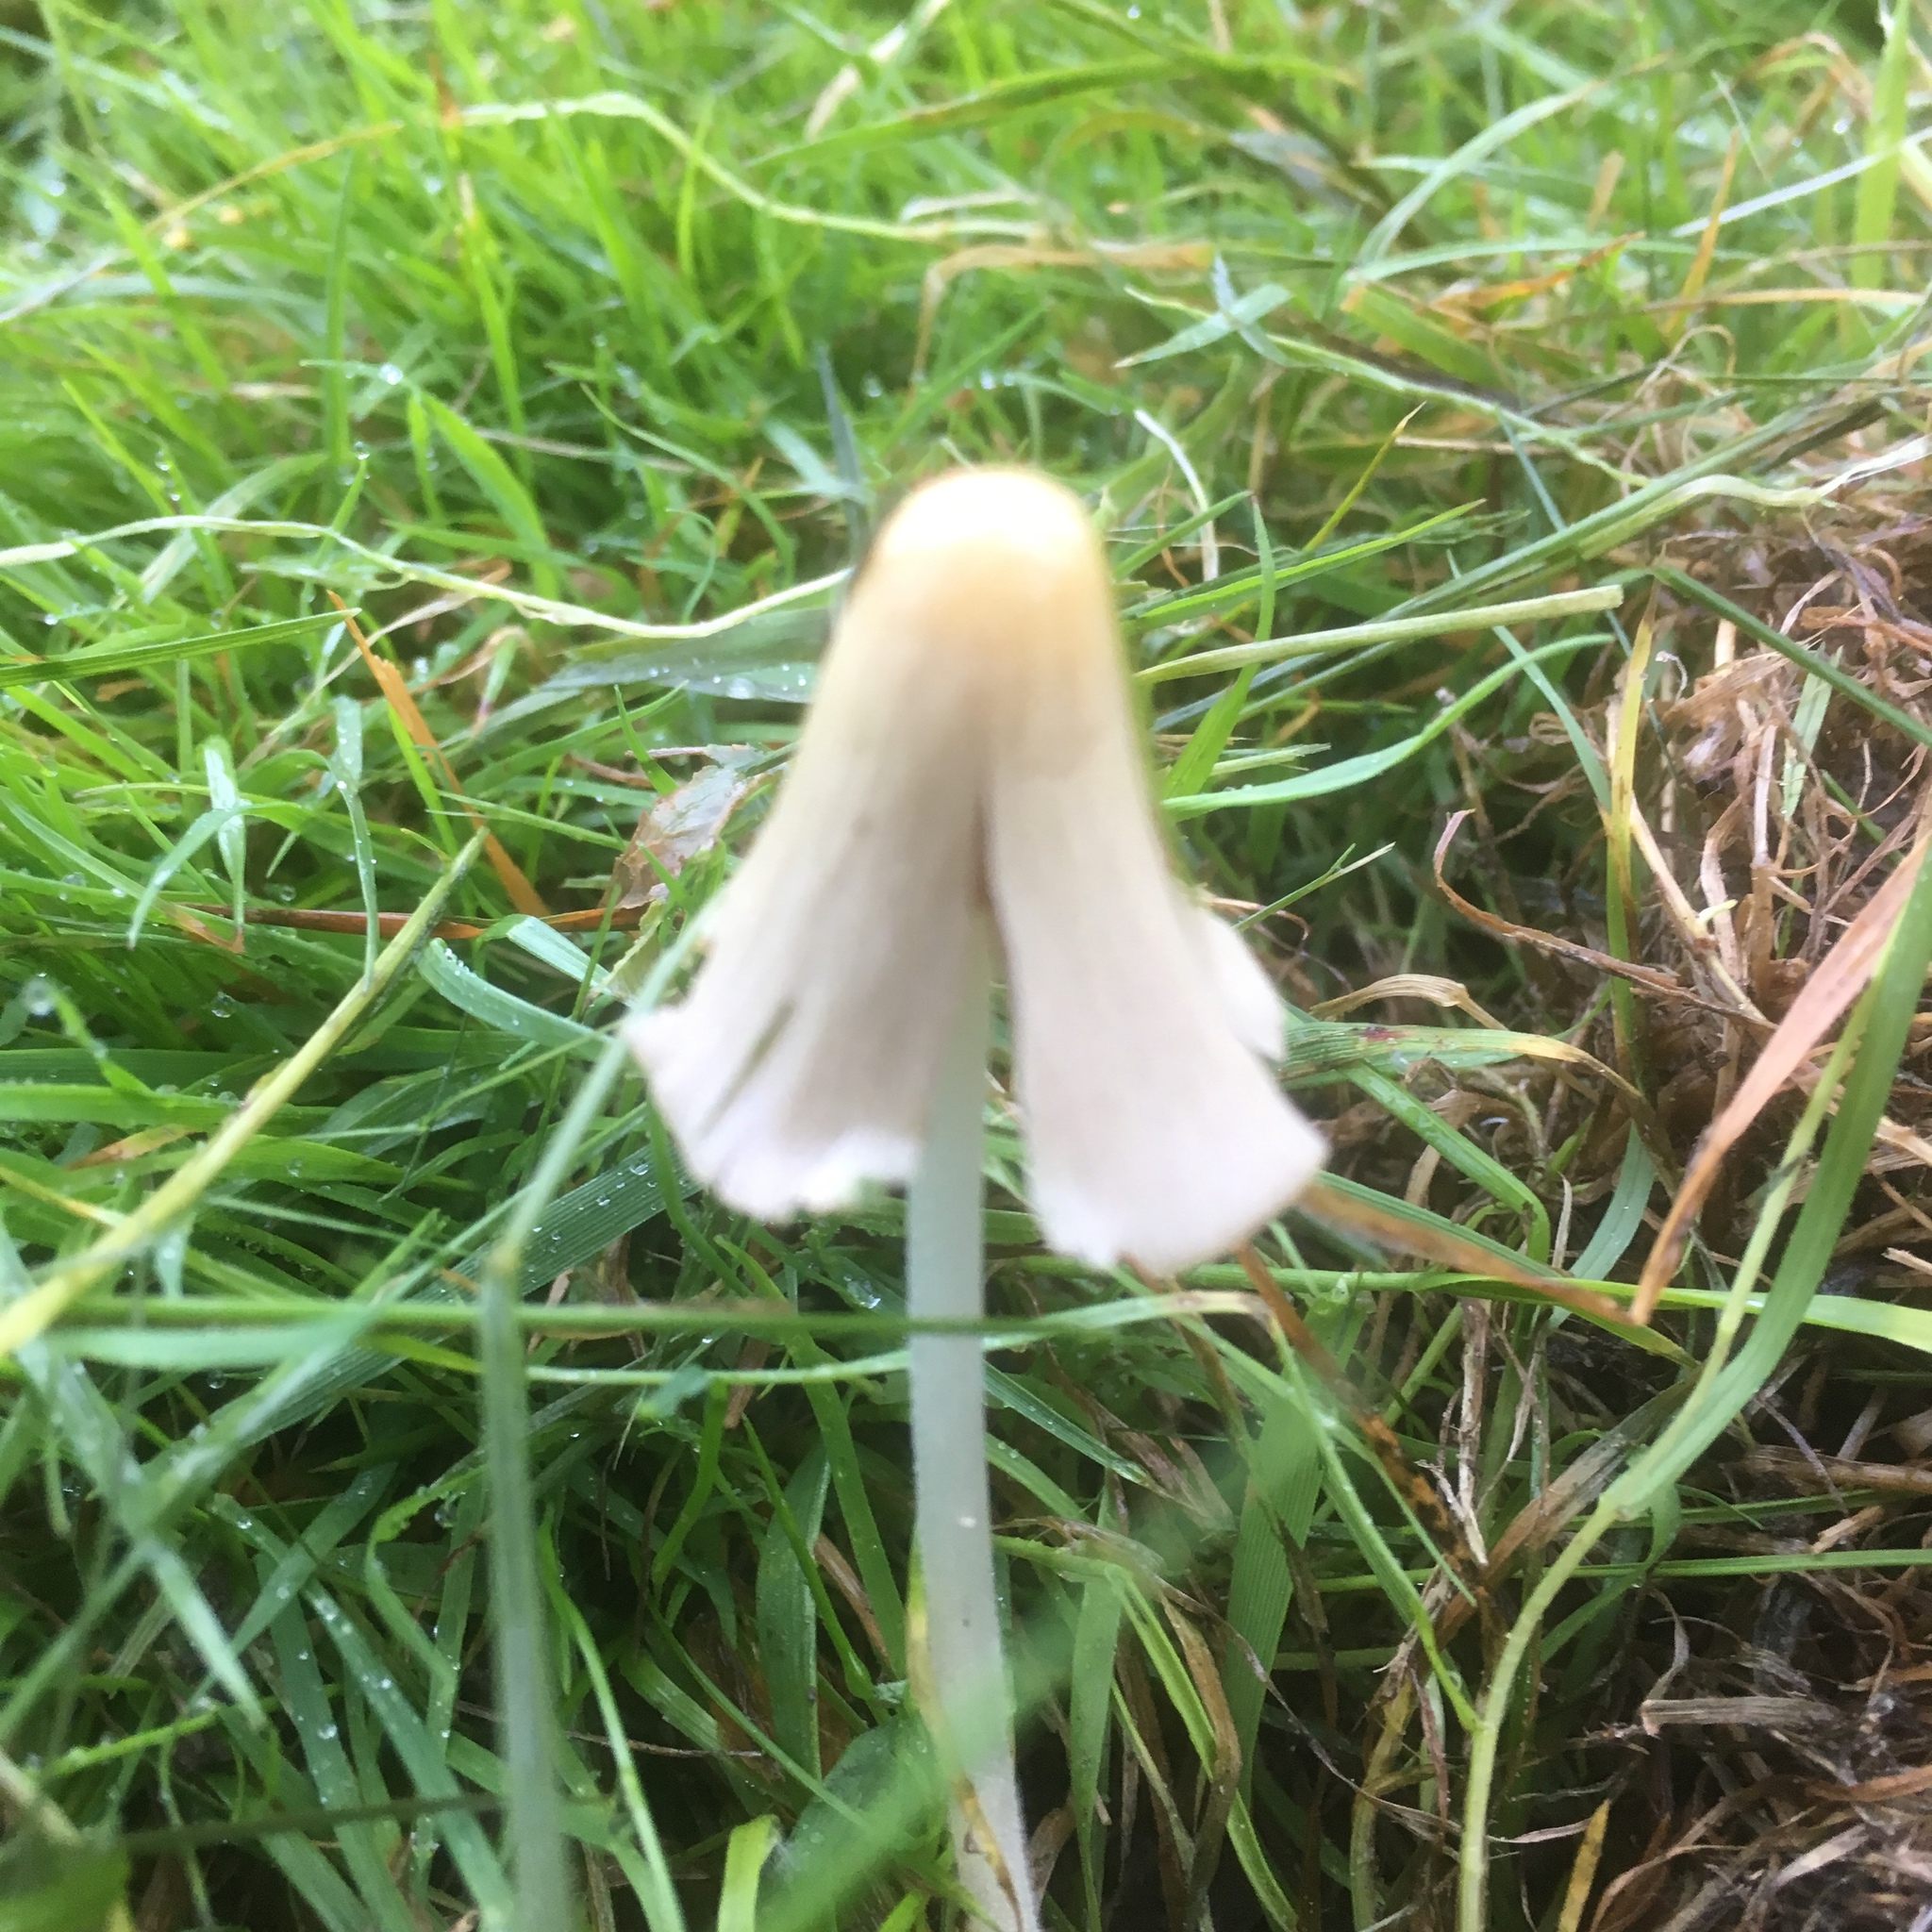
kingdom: Fungi
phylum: Basidiomycota
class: Agaricomycetes
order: Agaricales
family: Bolbitiaceae
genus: Conocybe
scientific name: Conocybe apala
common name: Milky conecap
